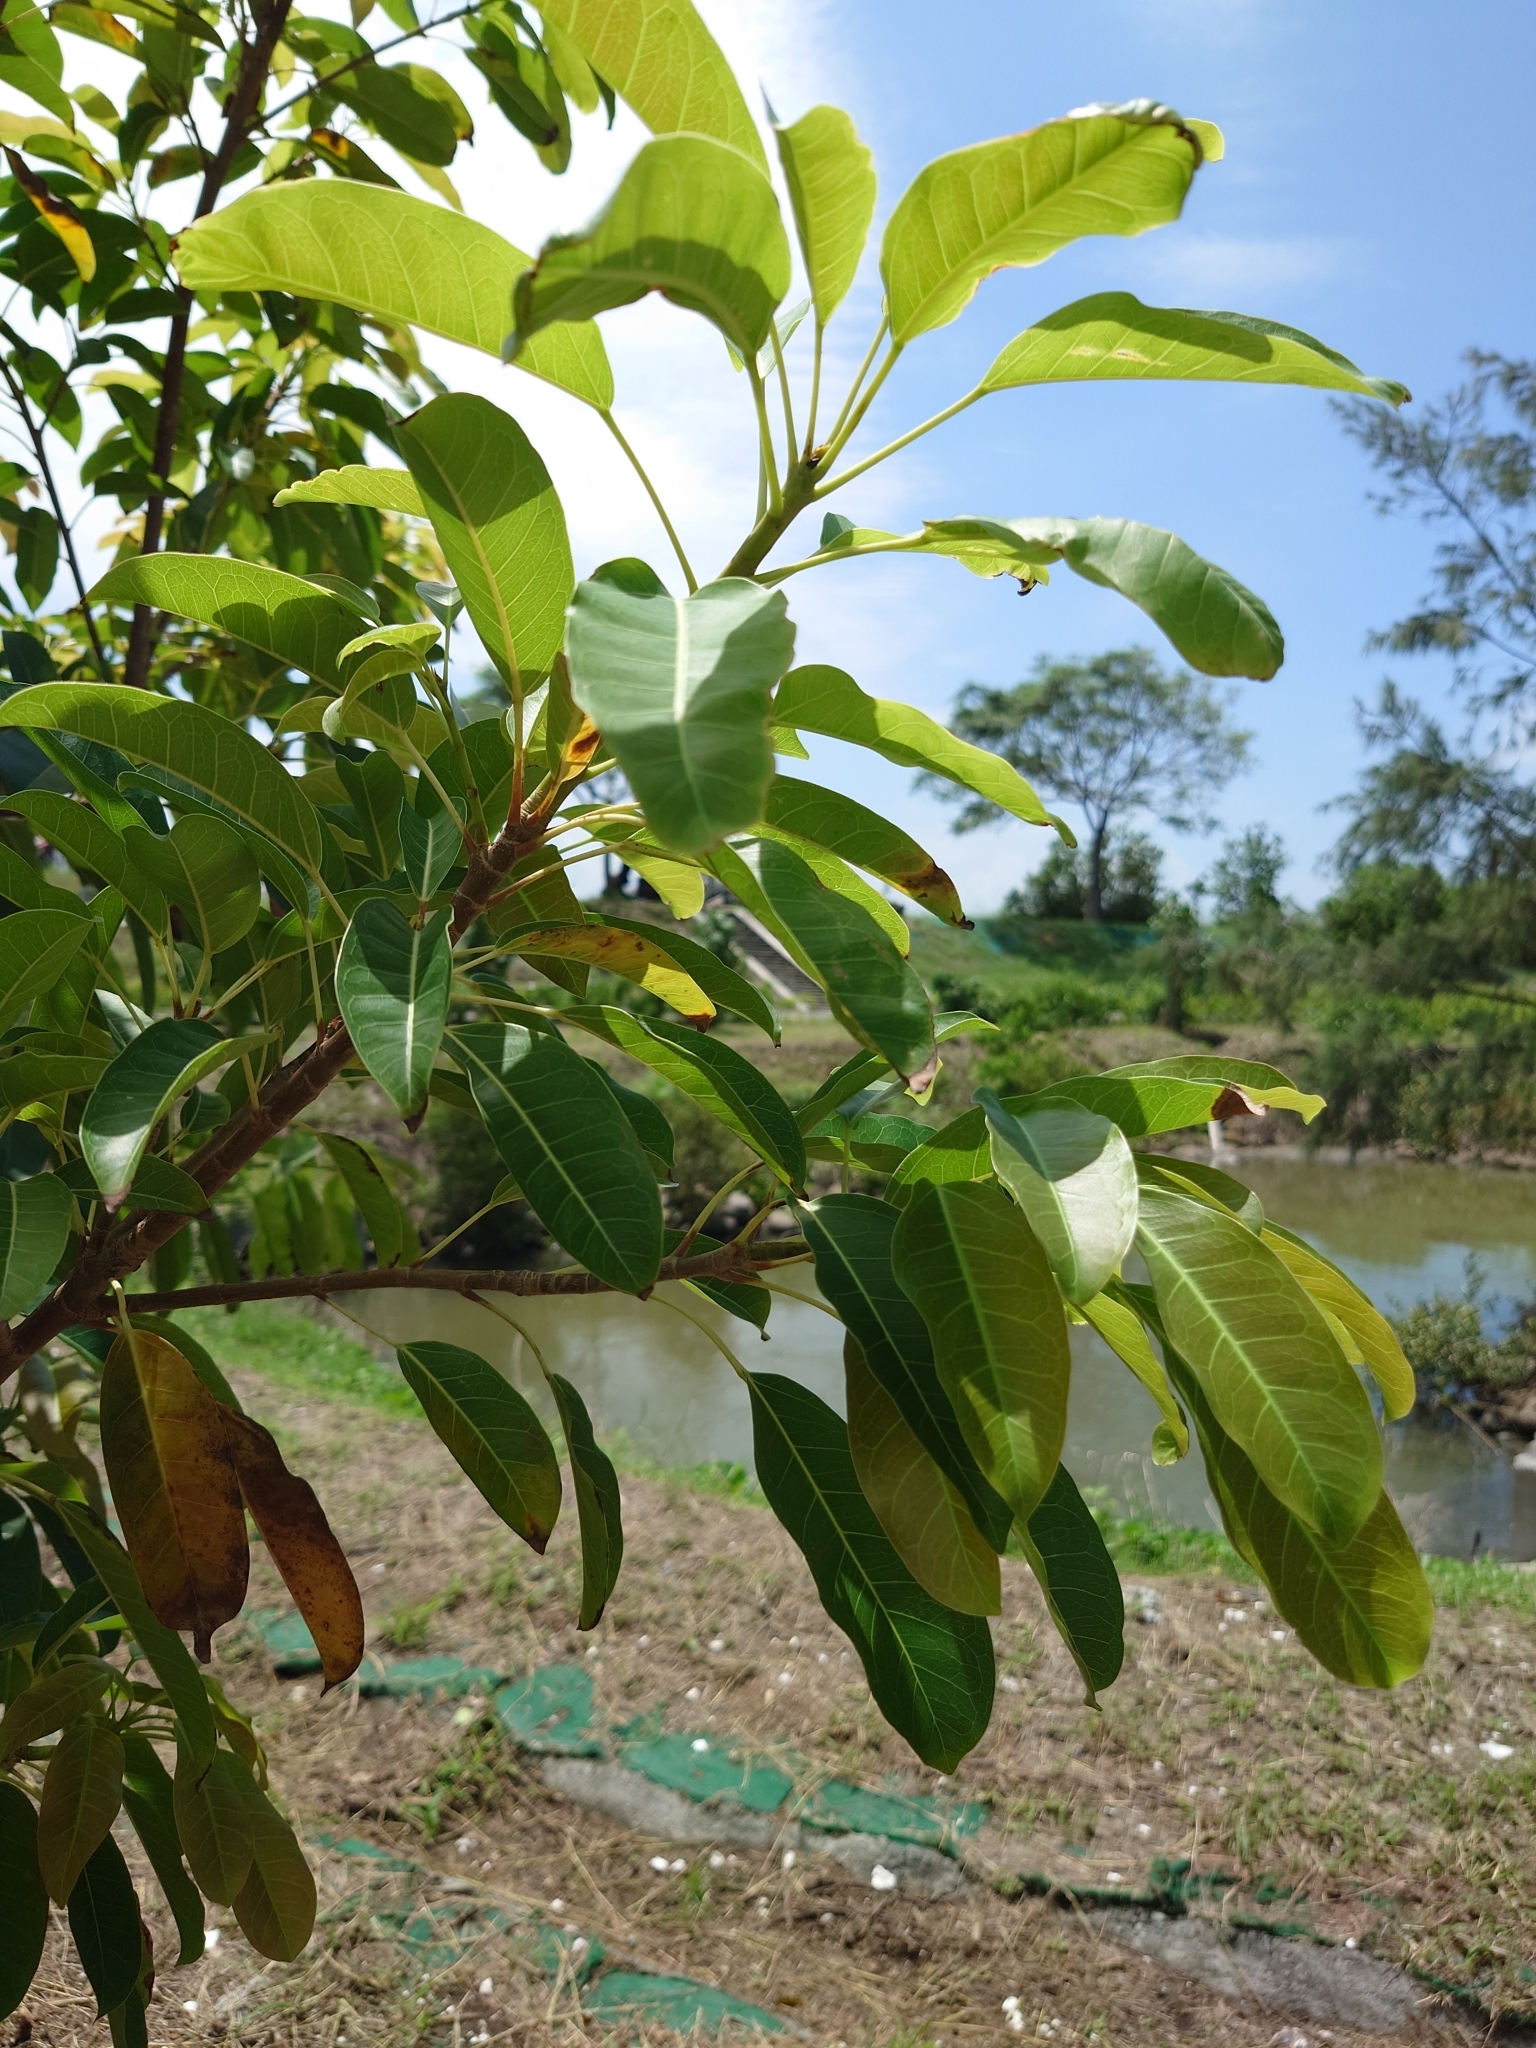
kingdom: Plantae
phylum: Tracheophyta
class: Magnoliopsida
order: Rosales
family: Moraceae
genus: Ficus
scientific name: Ficus subpisocarpa
